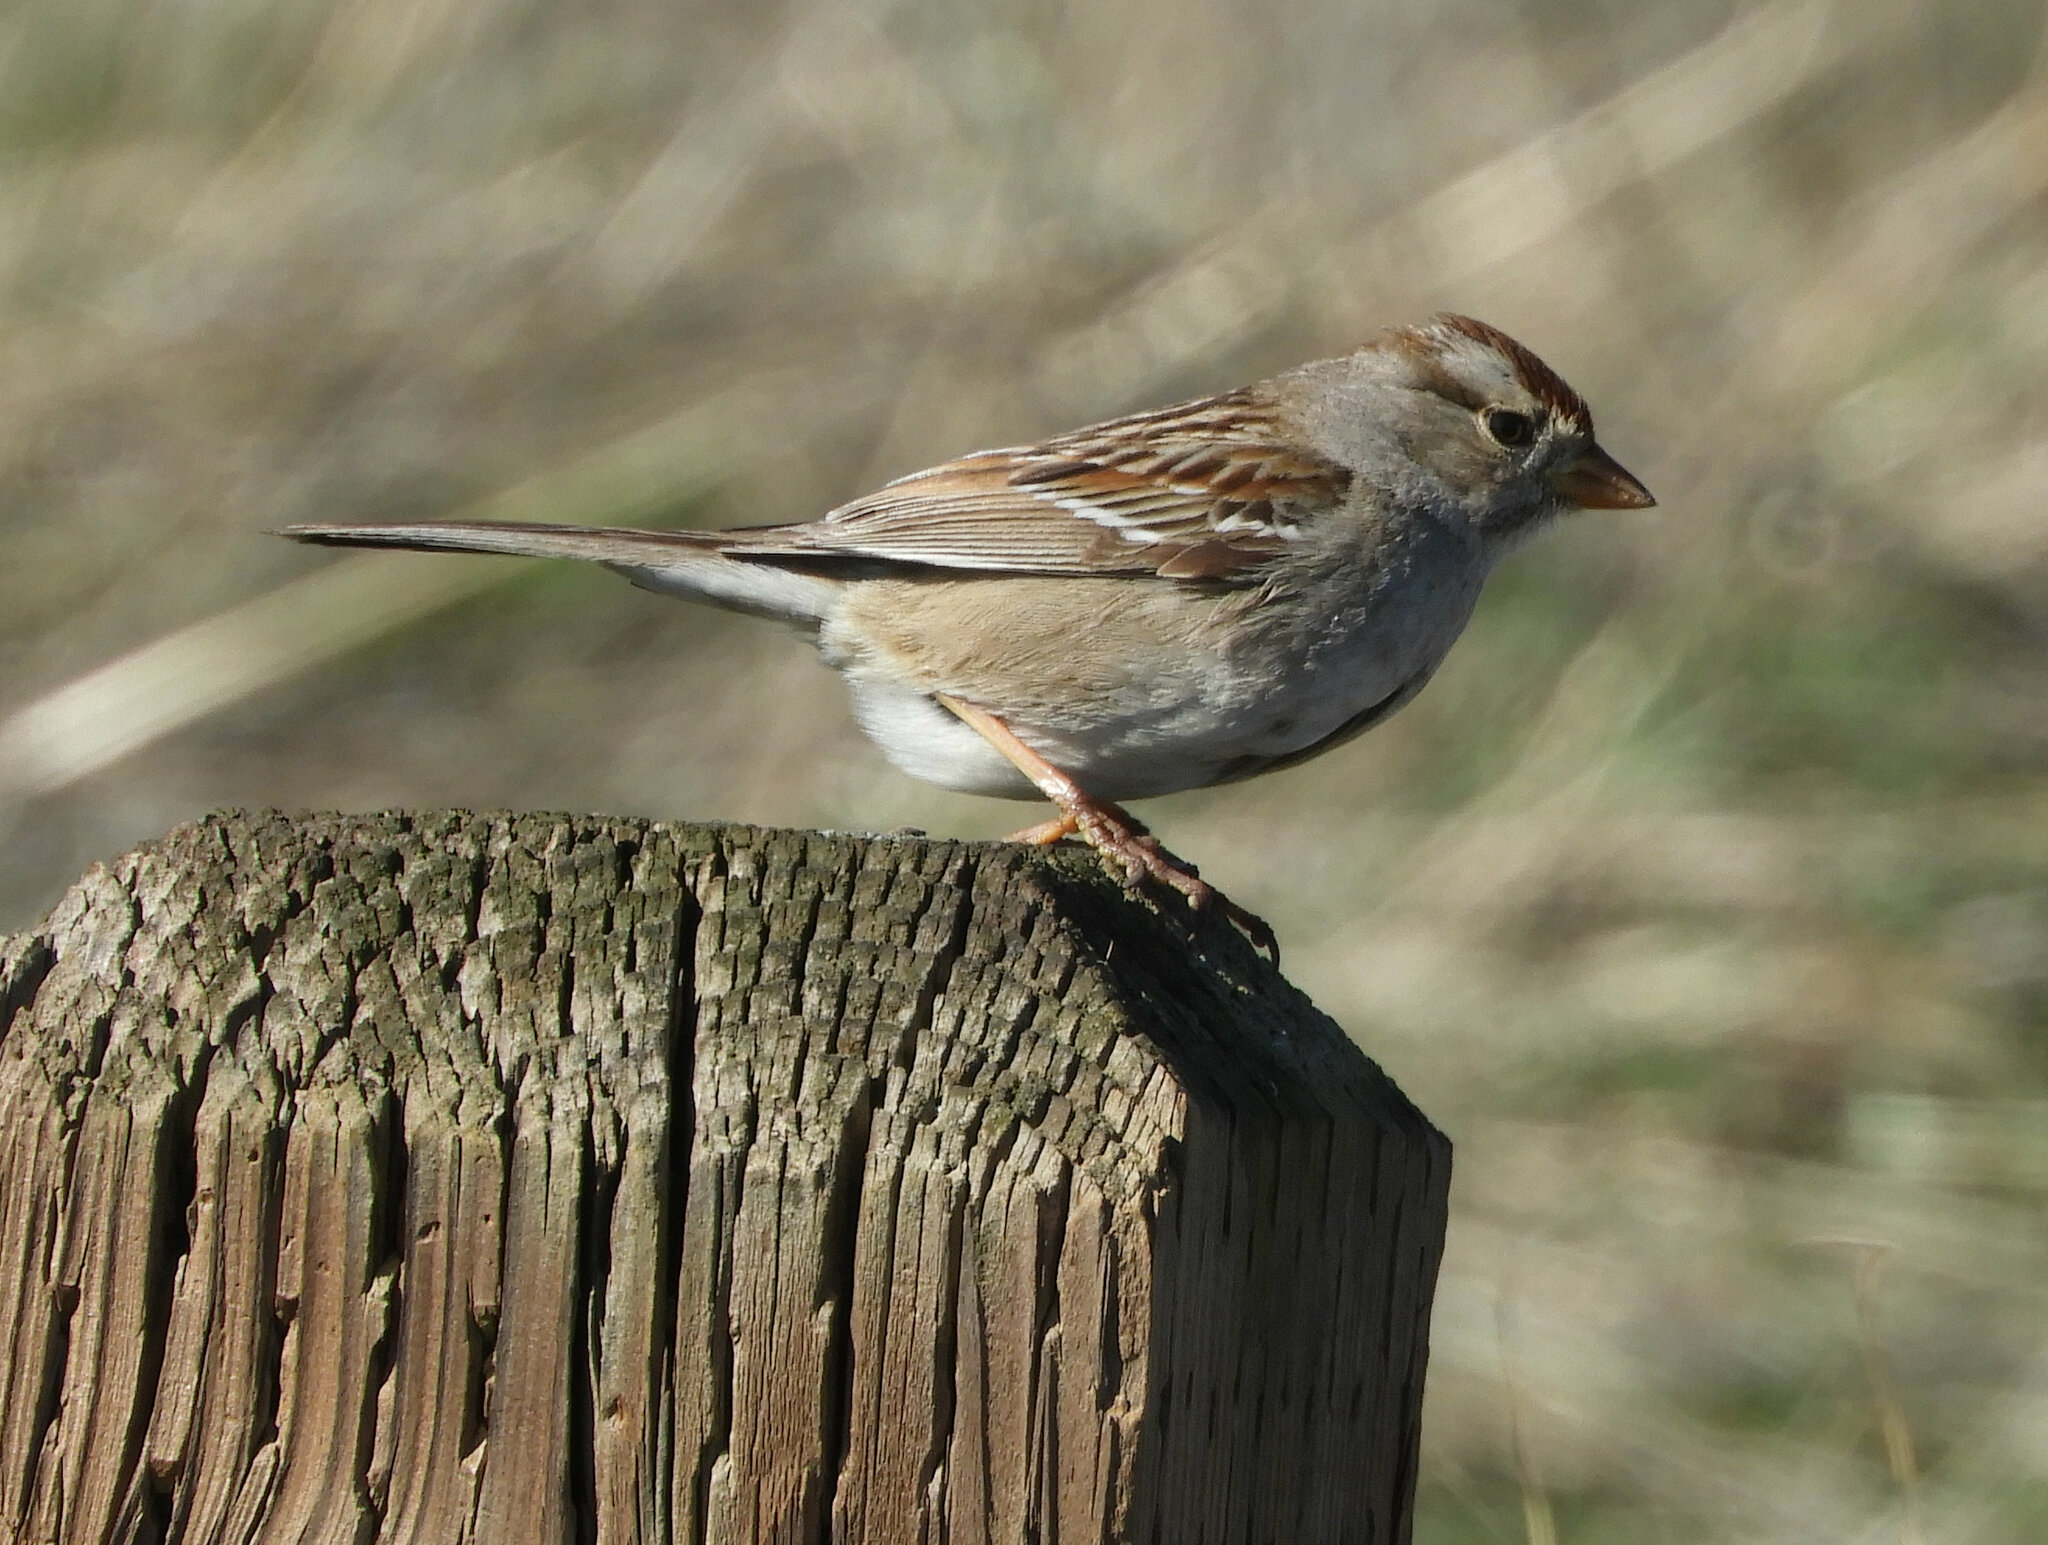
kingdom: Animalia
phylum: Chordata
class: Aves
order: Passeriformes
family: Passerellidae
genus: Zonotrichia
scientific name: Zonotrichia leucophrys
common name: White-crowned sparrow
